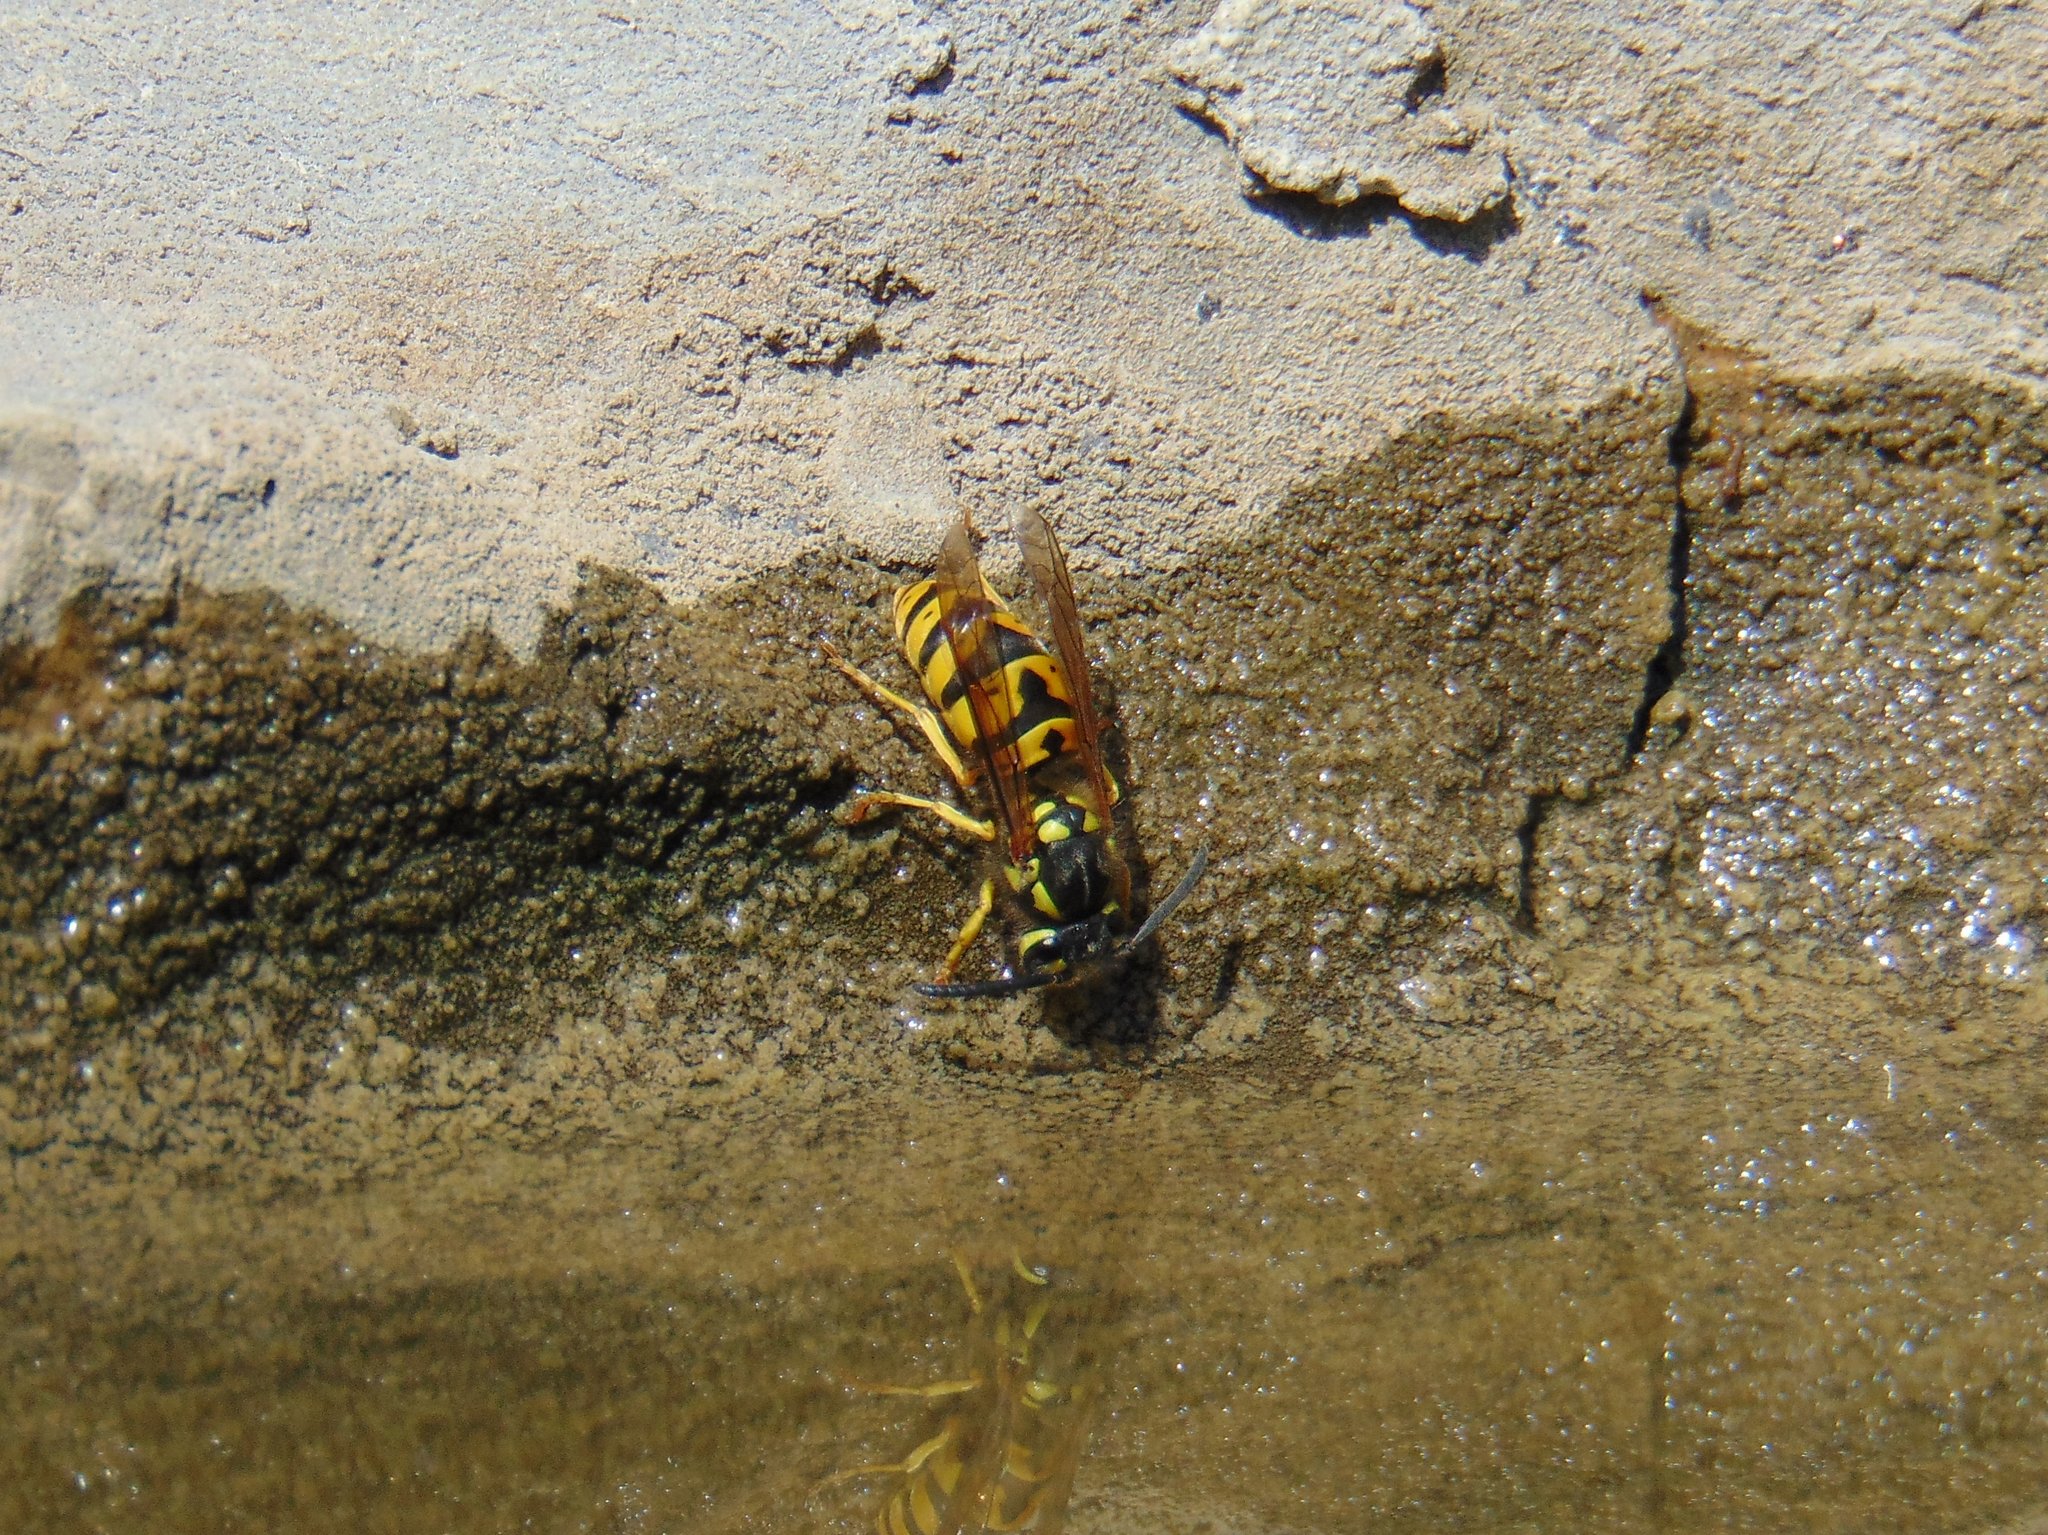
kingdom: Animalia
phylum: Arthropoda
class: Insecta
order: Hymenoptera
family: Vespidae
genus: Vespula
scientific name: Vespula germanica
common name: German wasp
